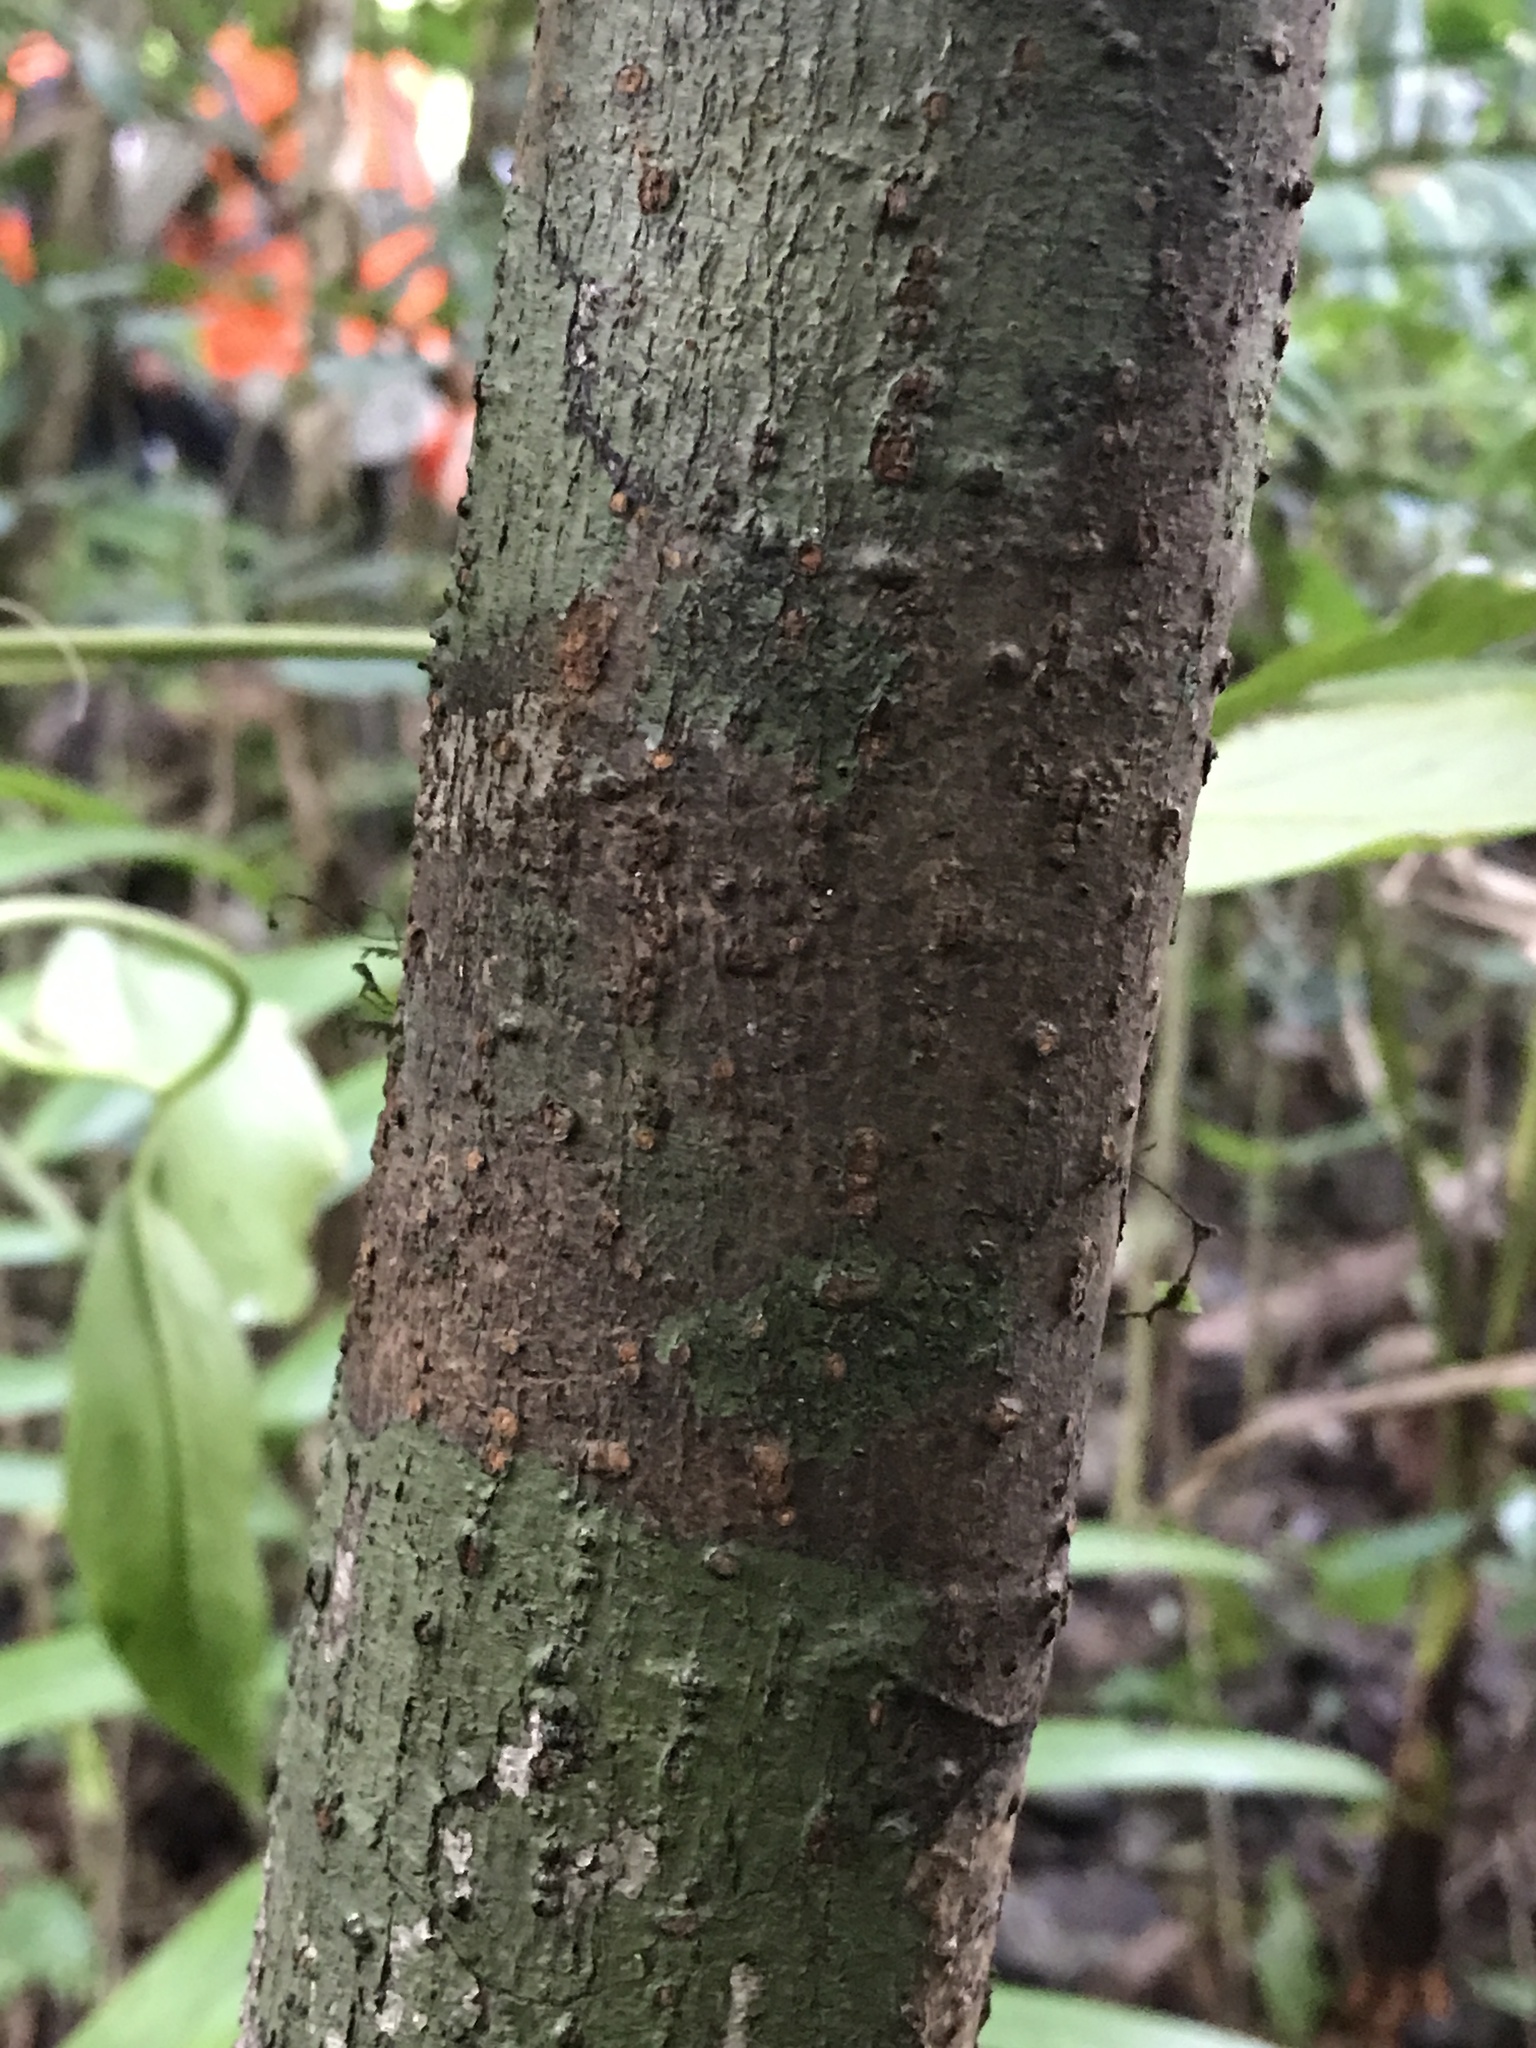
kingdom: Plantae
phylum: Tracheophyta
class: Magnoliopsida
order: Sapindales
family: Meliaceae
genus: Swietenia
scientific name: Swietenia macrophylla
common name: Honduras mahogany
